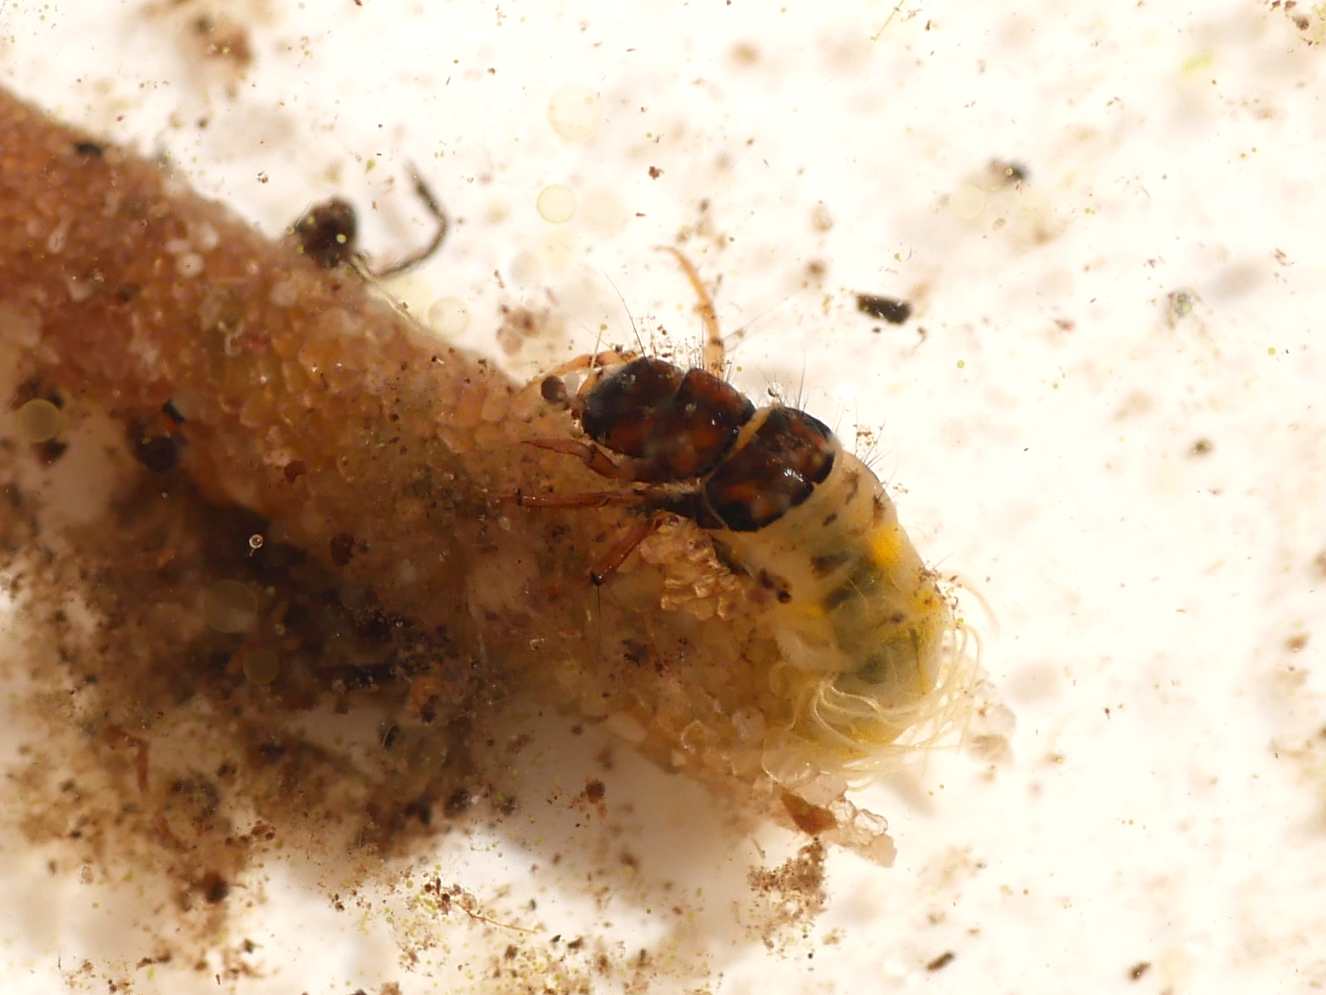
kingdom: Animalia
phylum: Arthropoda
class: Insecta
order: Trichoptera
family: Limnephilidae
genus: Limnephilus
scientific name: Limnephilus vittatus
